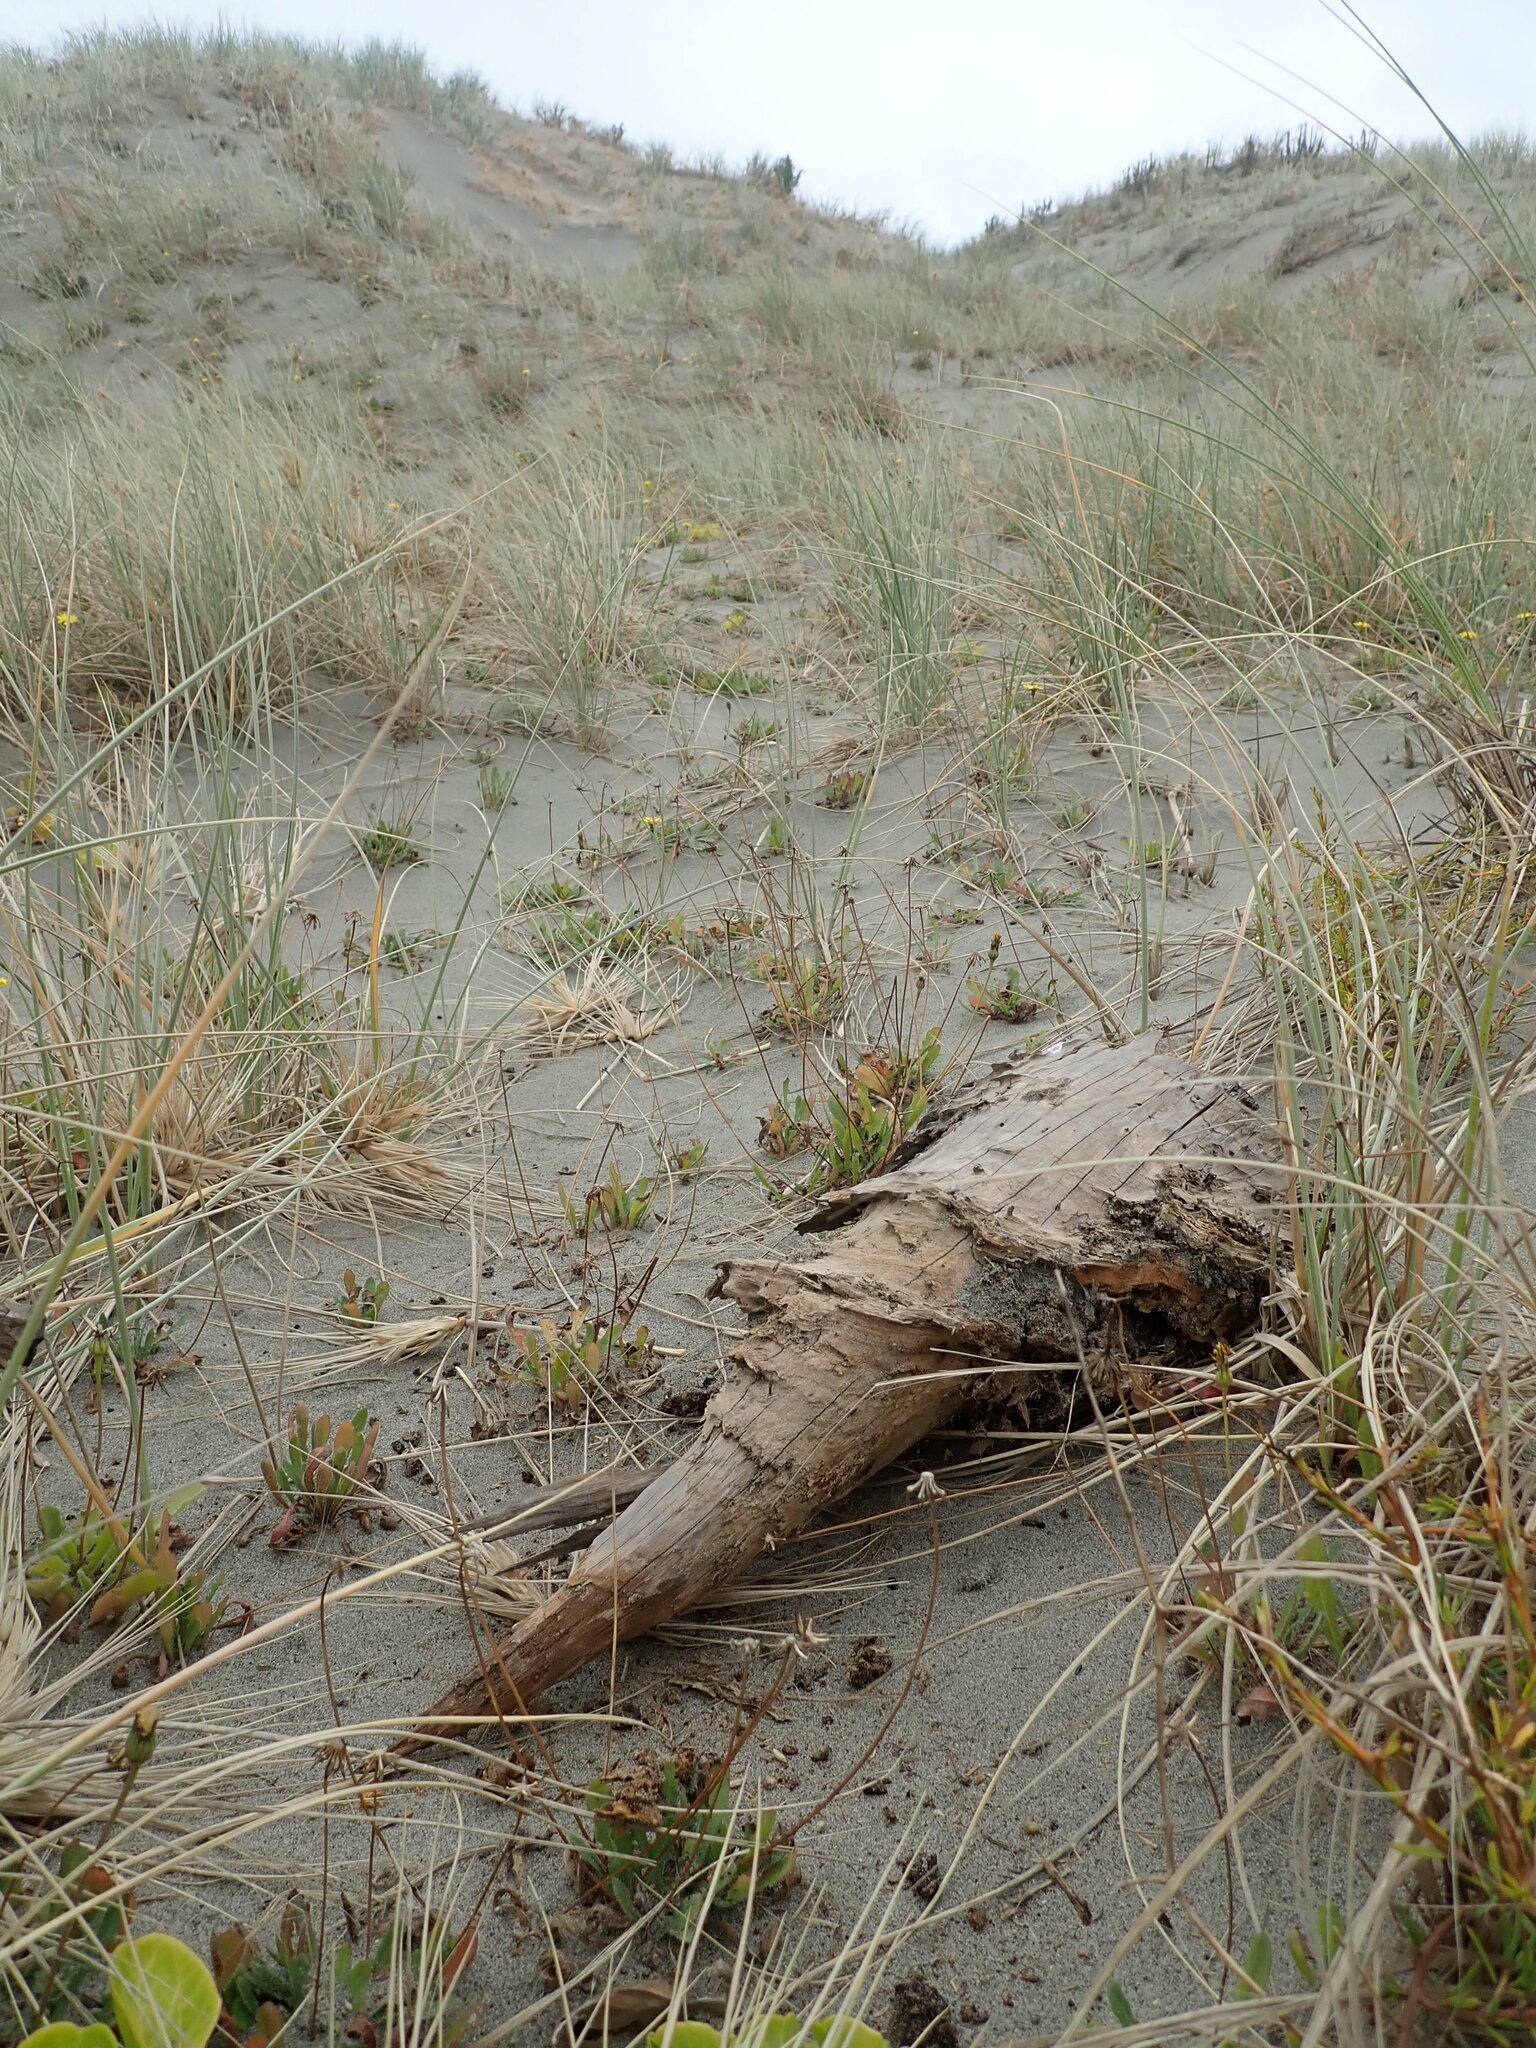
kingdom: Animalia
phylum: Arthropoda
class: Arachnida
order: Araneae
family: Theridiidae
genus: Steatoda
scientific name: Steatoda capensis
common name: Cobweb weaver
